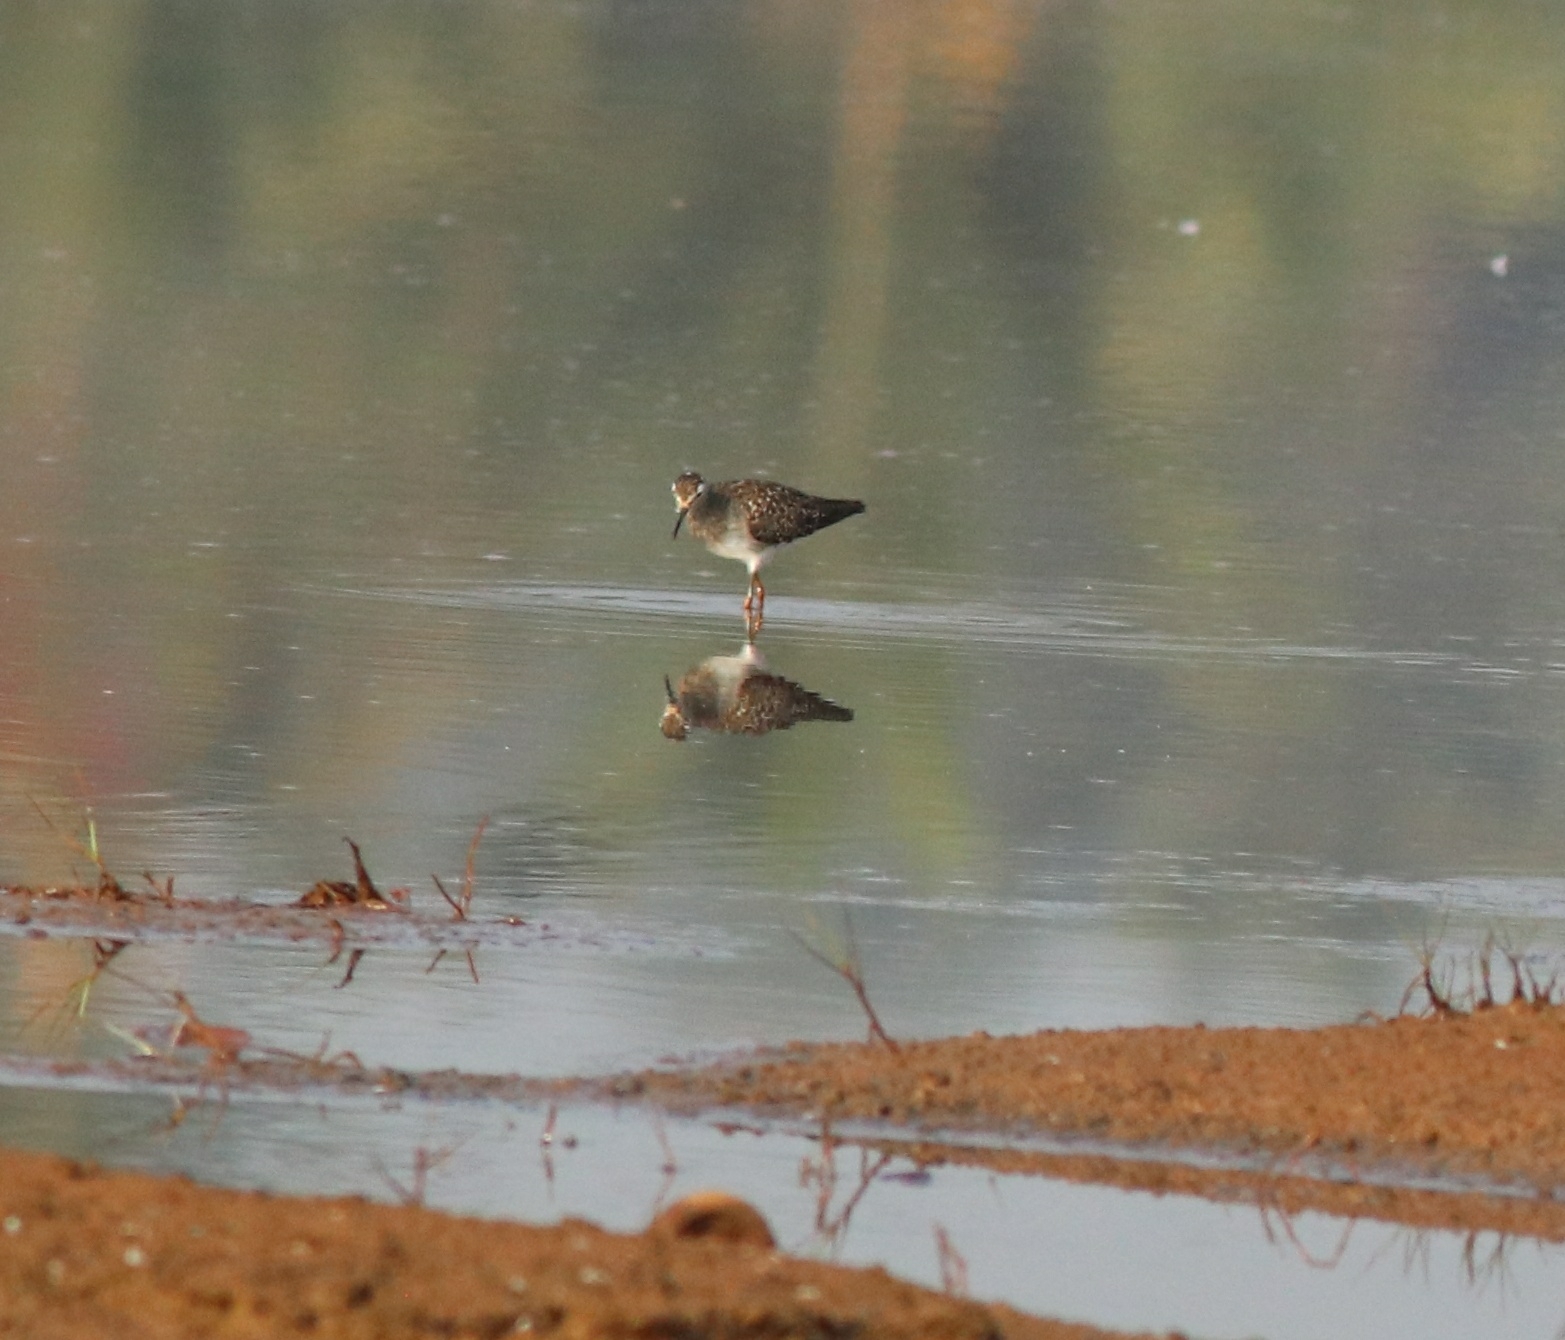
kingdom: Animalia
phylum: Chordata
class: Aves
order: Charadriiformes
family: Scolopacidae
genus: Tringa
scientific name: Tringa glareola
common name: Wood sandpiper
